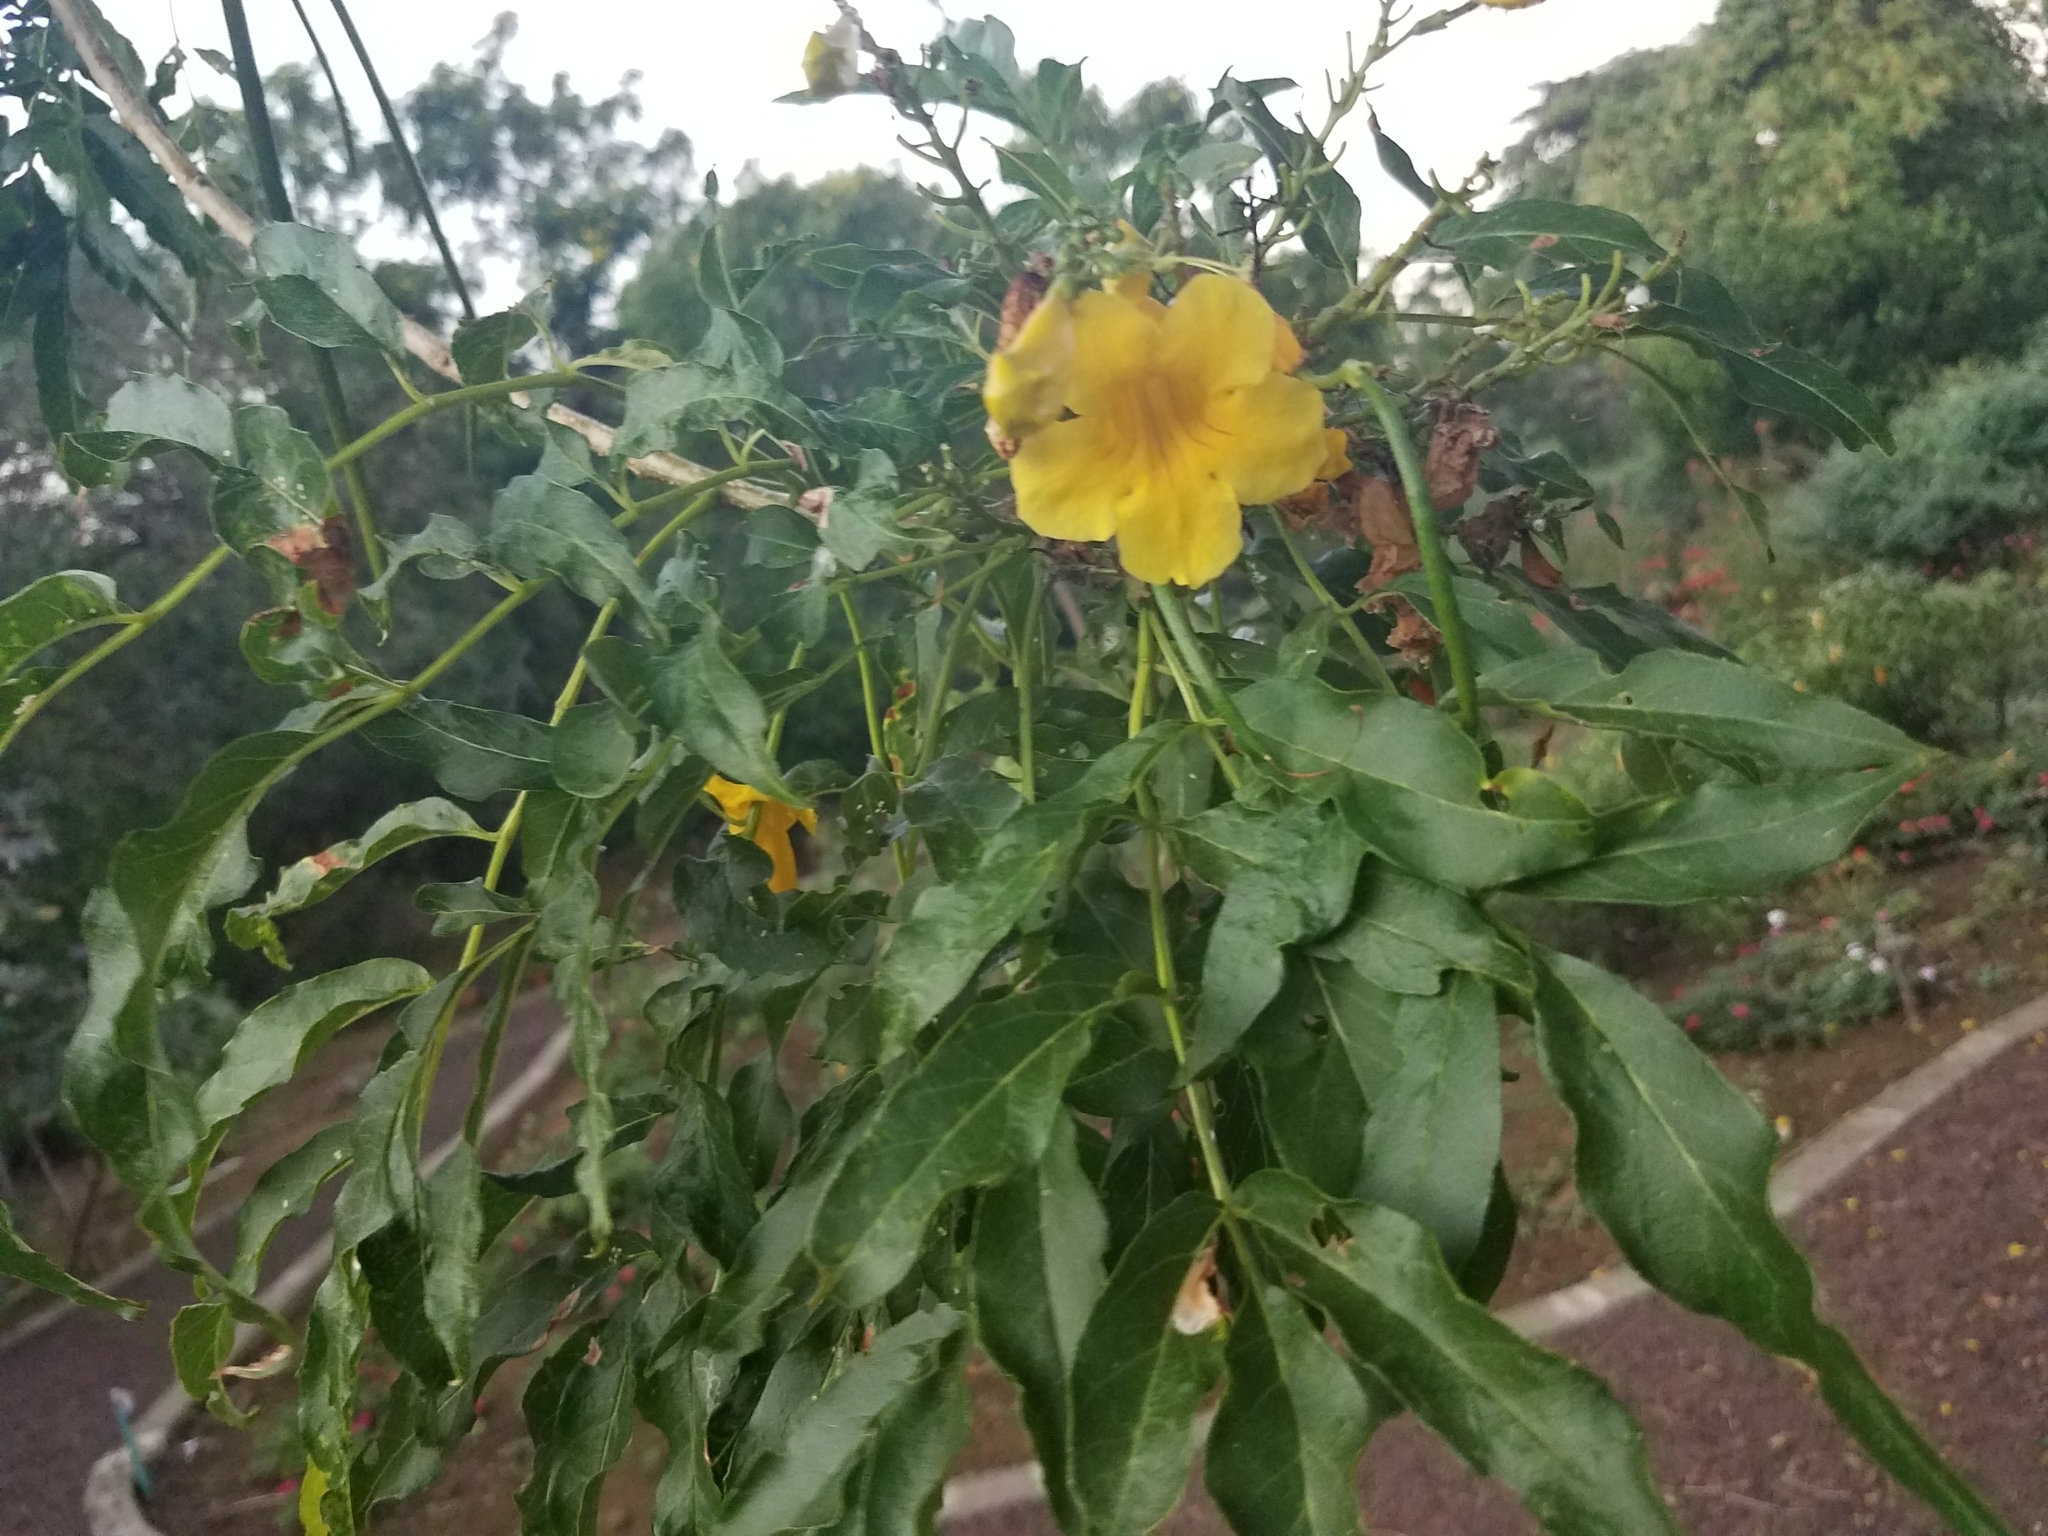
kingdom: Plantae
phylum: Tracheophyta
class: Magnoliopsida
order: Lamiales
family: Bignoniaceae
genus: Tecoma
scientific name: Tecoma stans
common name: Yellow trumpetbush
